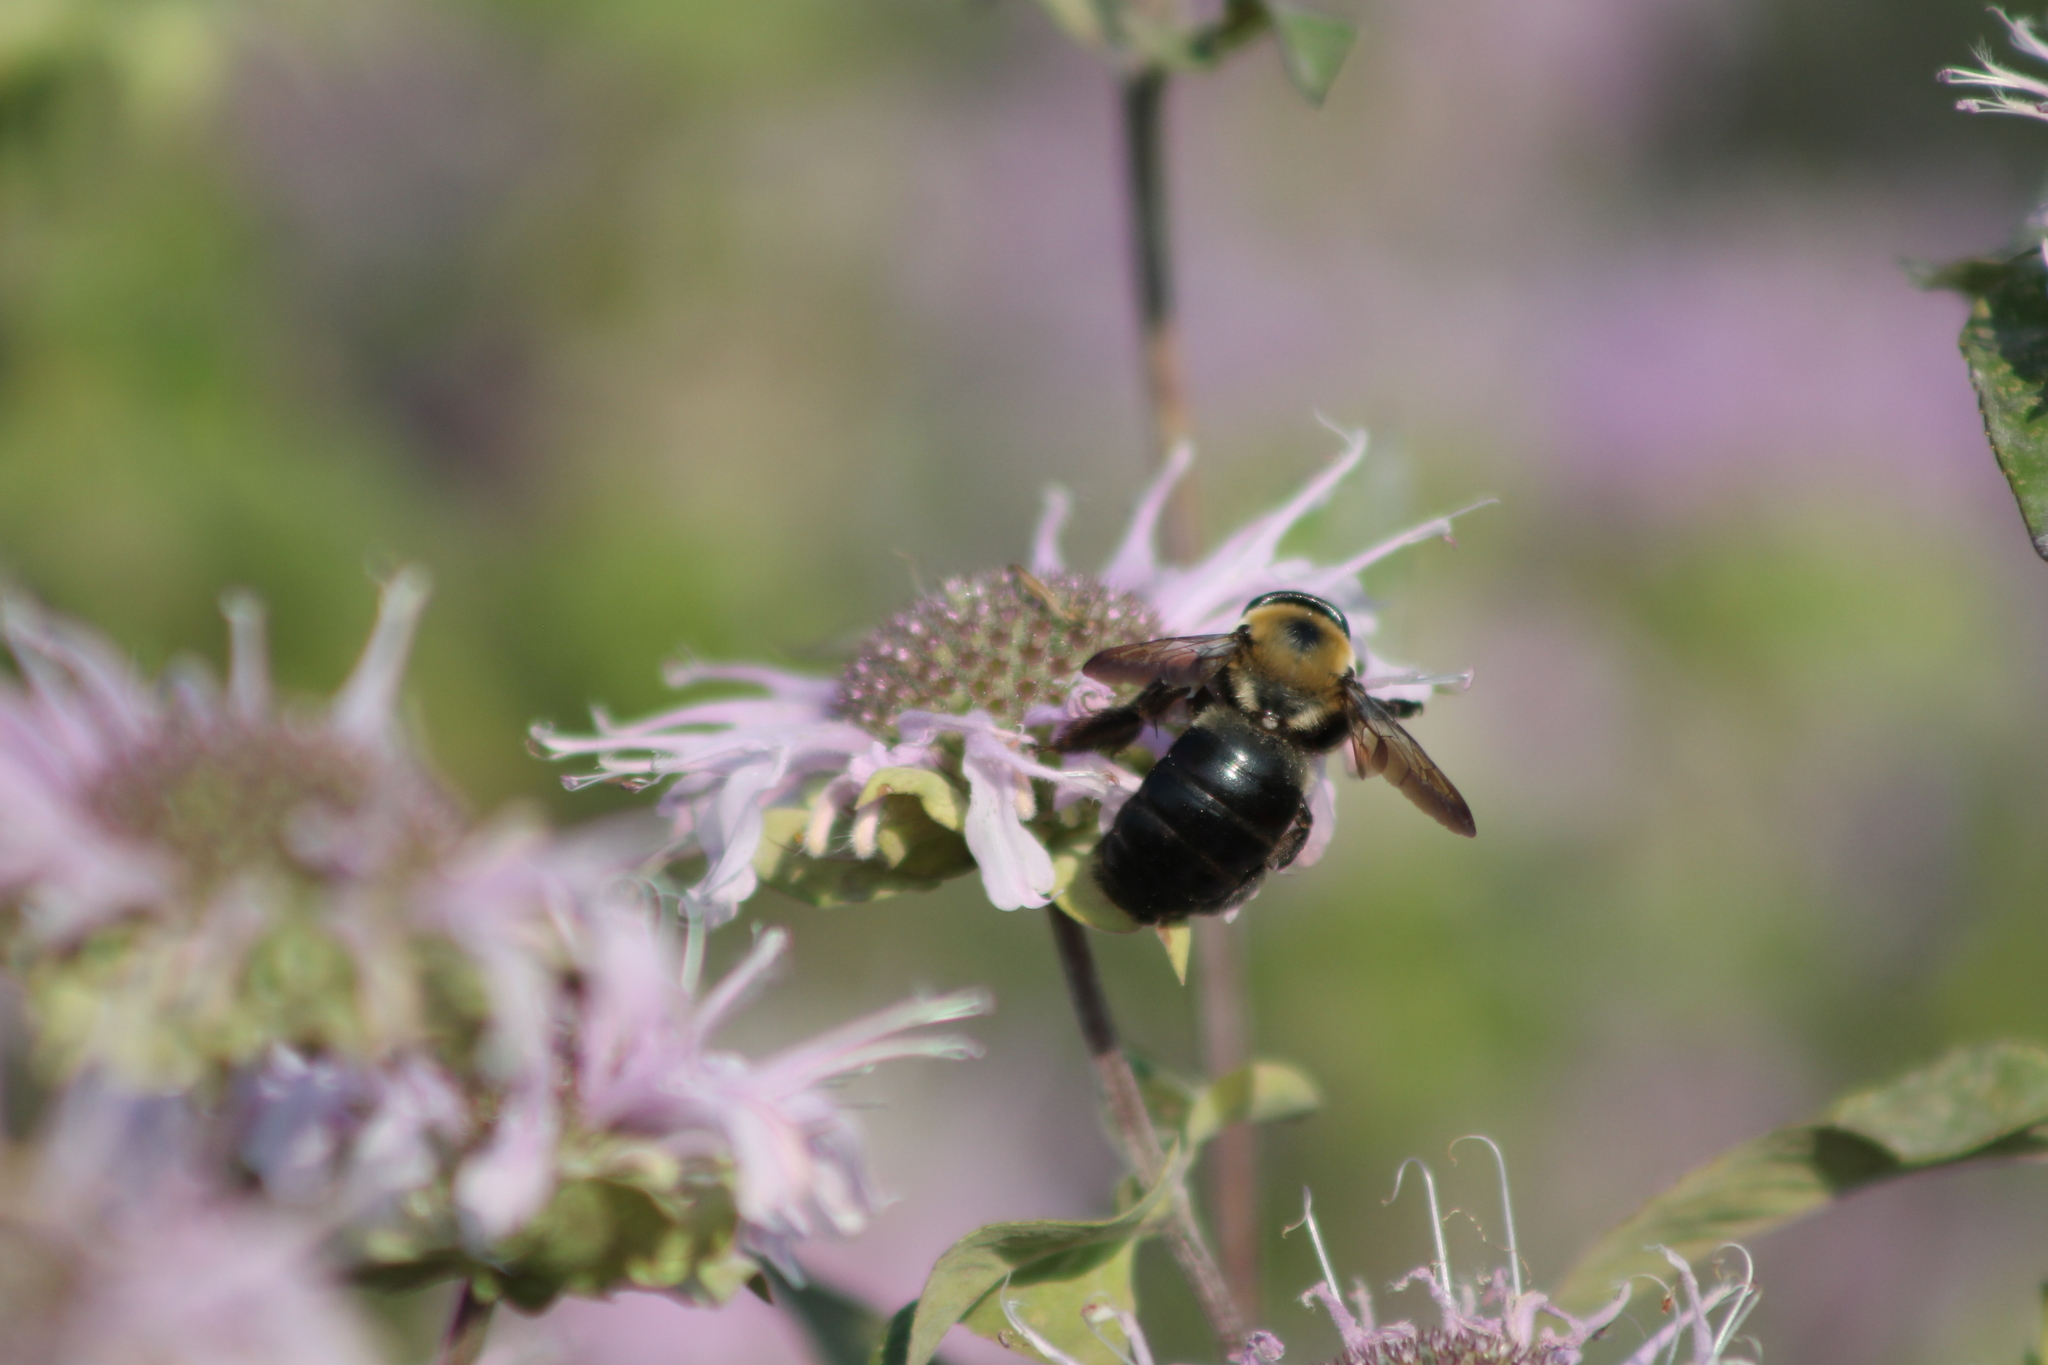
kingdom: Animalia
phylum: Arthropoda
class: Insecta
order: Hymenoptera
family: Apidae
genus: Xylocopa
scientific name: Xylocopa virginica
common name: Carpenter bee
